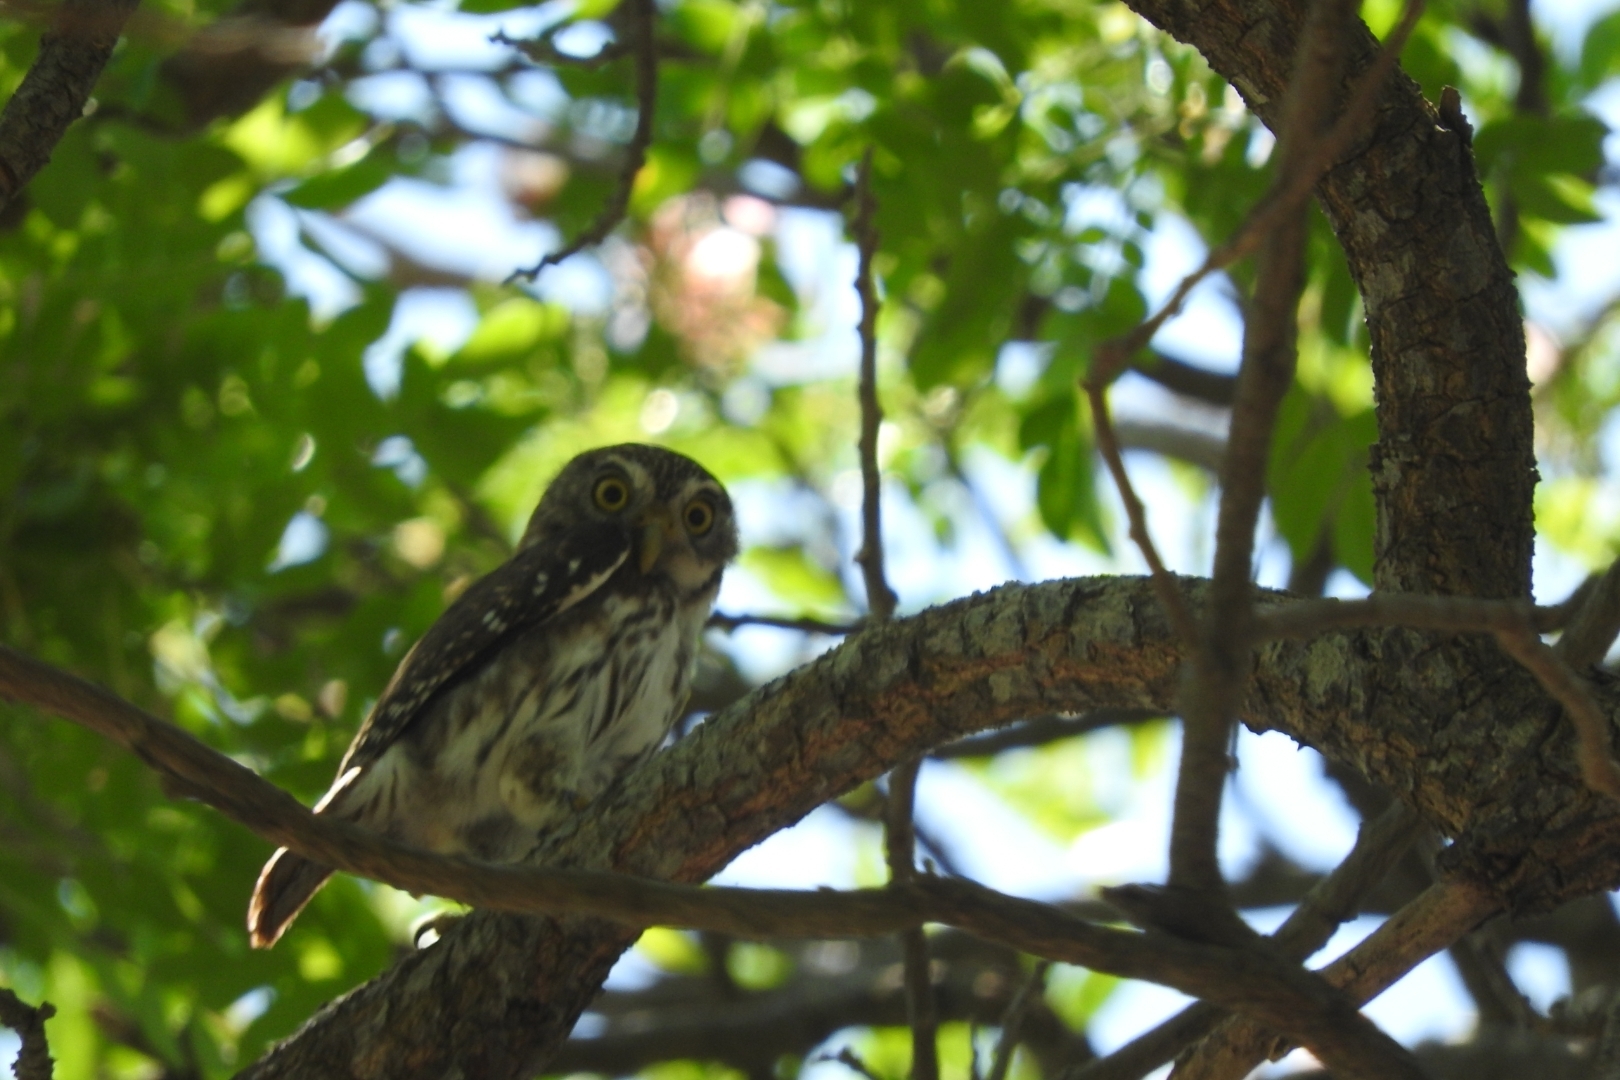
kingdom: Animalia
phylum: Chordata
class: Aves
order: Strigiformes
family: Strigidae
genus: Glaucidium
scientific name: Glaucidium brasilianum
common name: Ferruginous pygmy-owl
